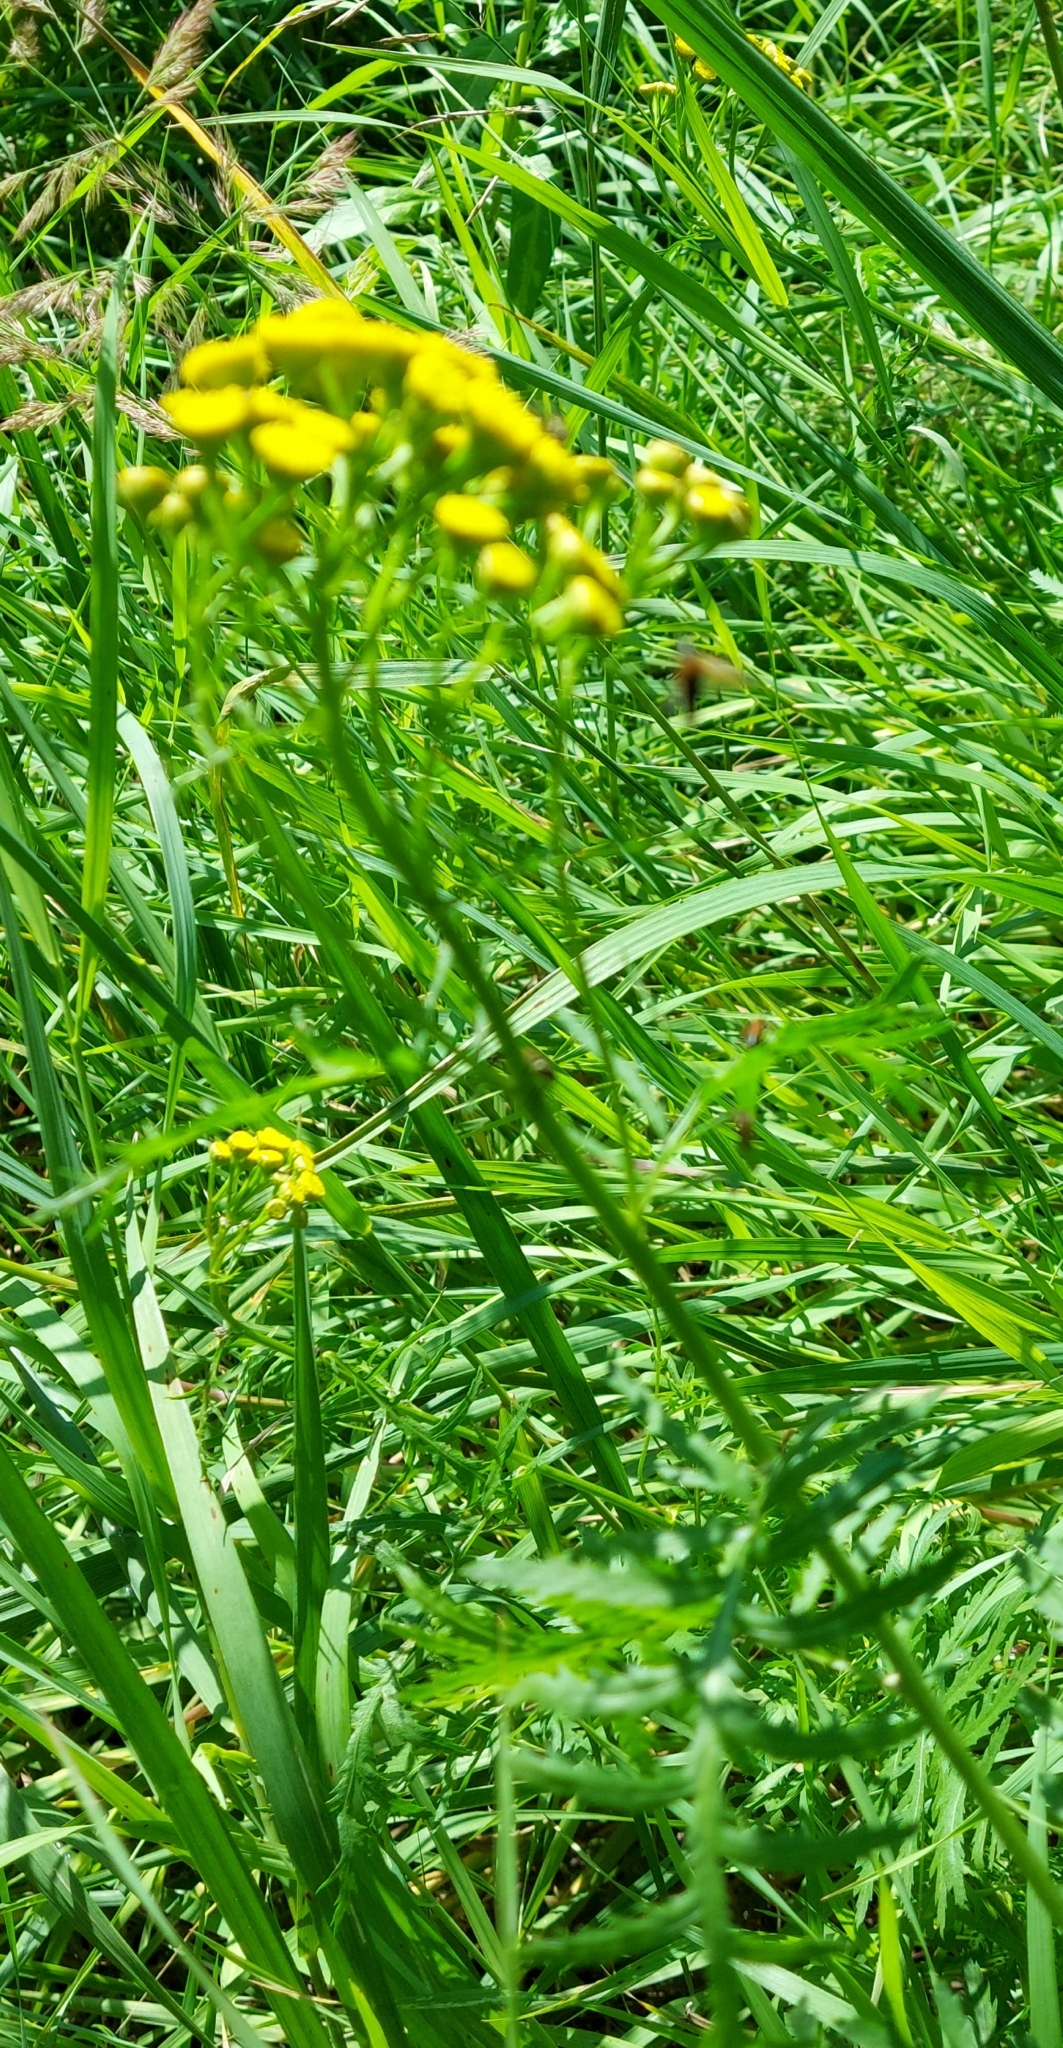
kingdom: Plantae
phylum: Tracheophyta
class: Magnoliopsida
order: Asterales
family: Asteraceae
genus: Tanacetum
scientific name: Tanacetum vulgare
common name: Common tansy
